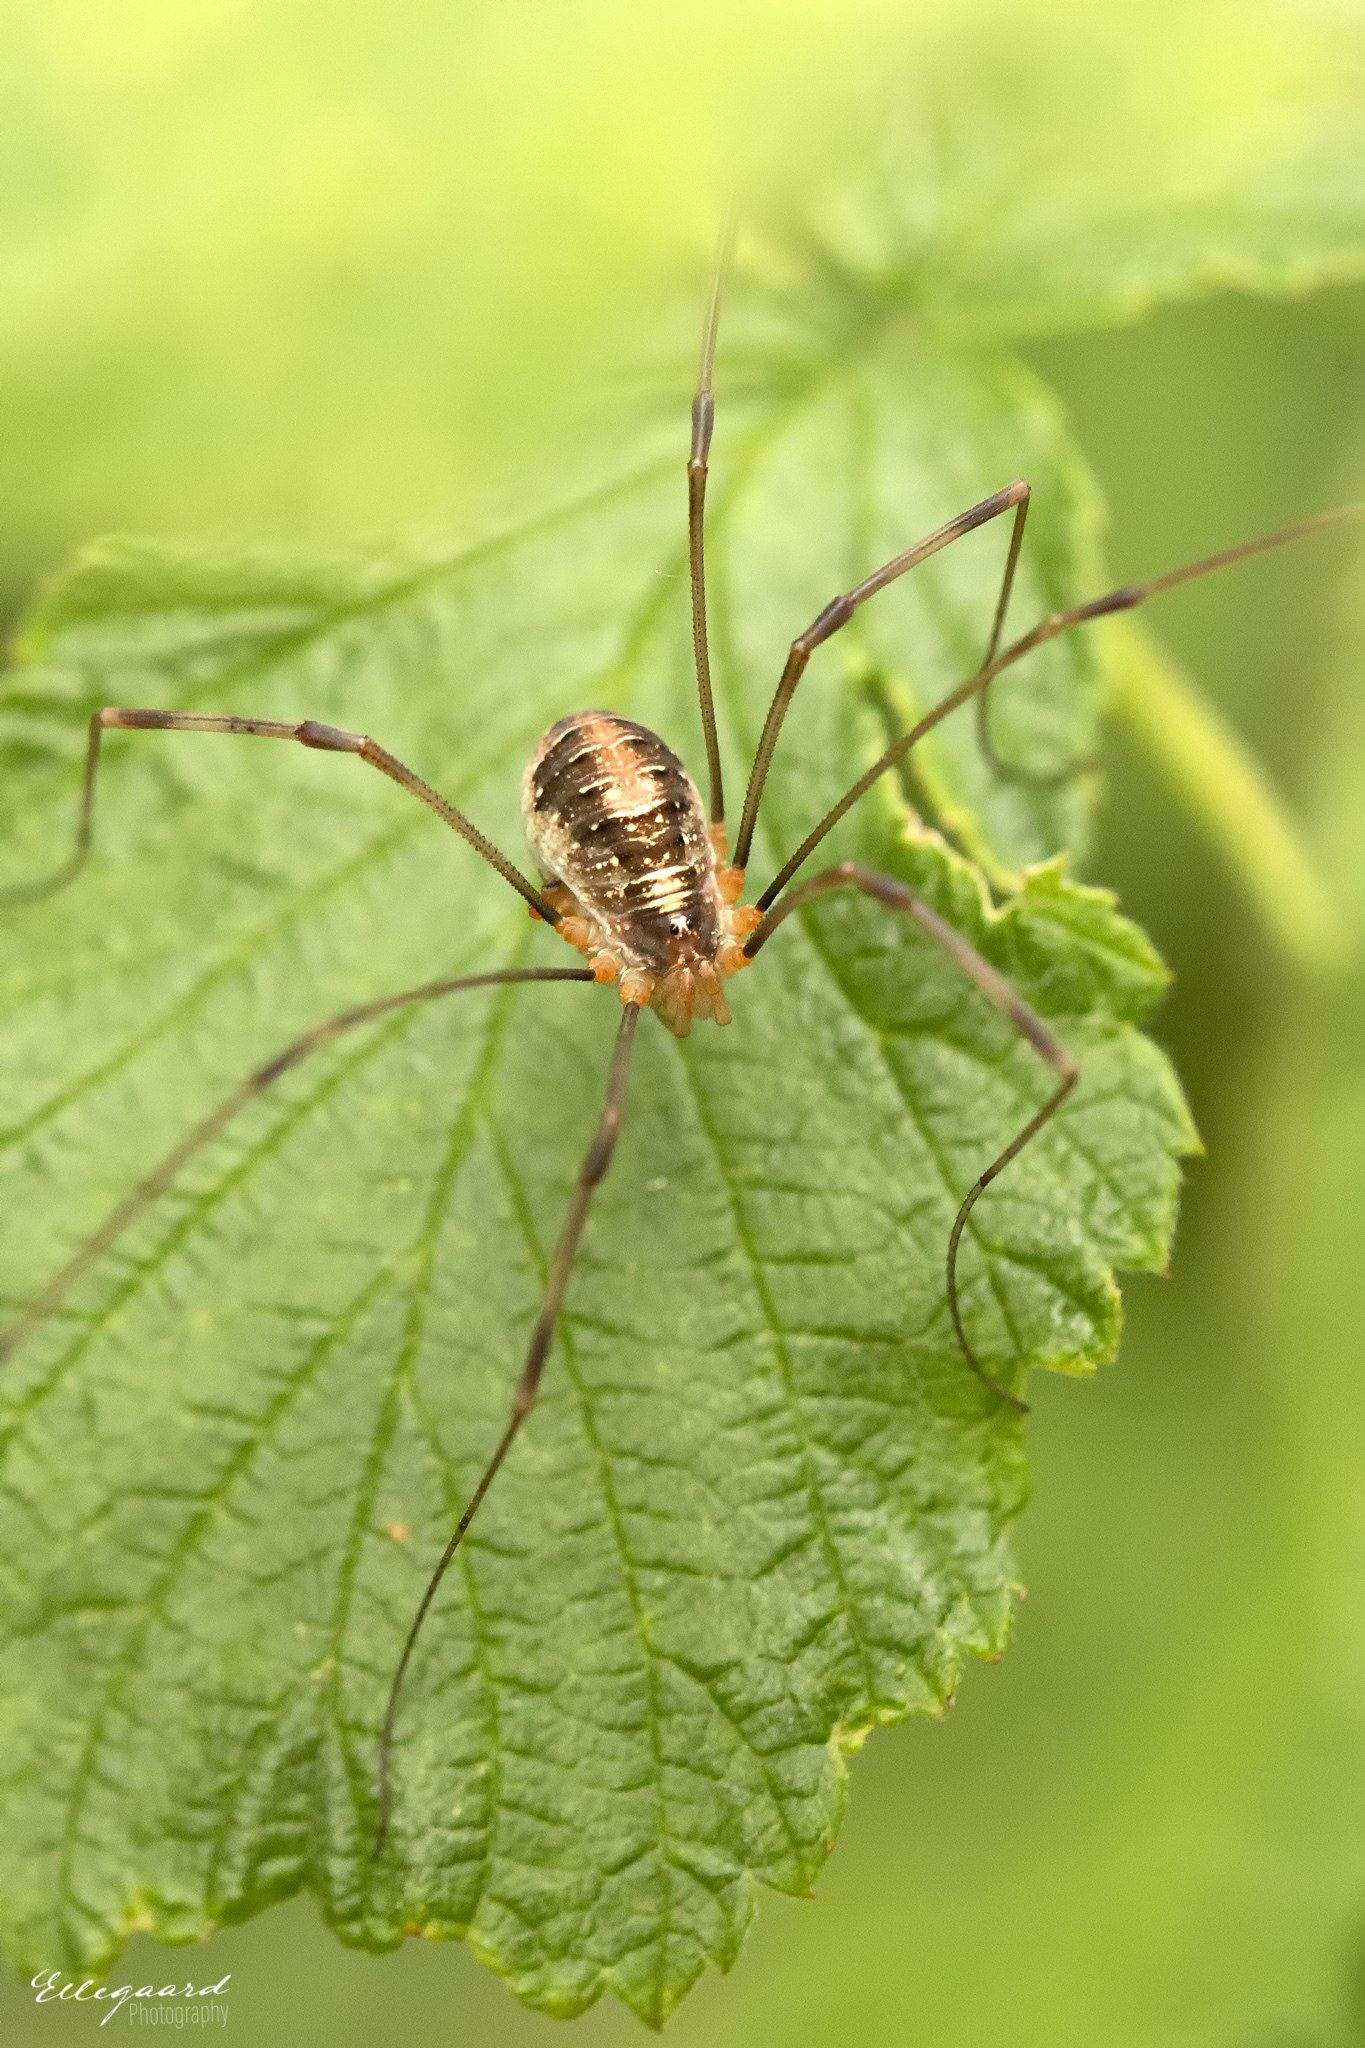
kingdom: Animalia
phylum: Arthropoda
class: Arachnida
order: Opiliones
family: Phalangiidae
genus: Opilio
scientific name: Opilio canestrinii
